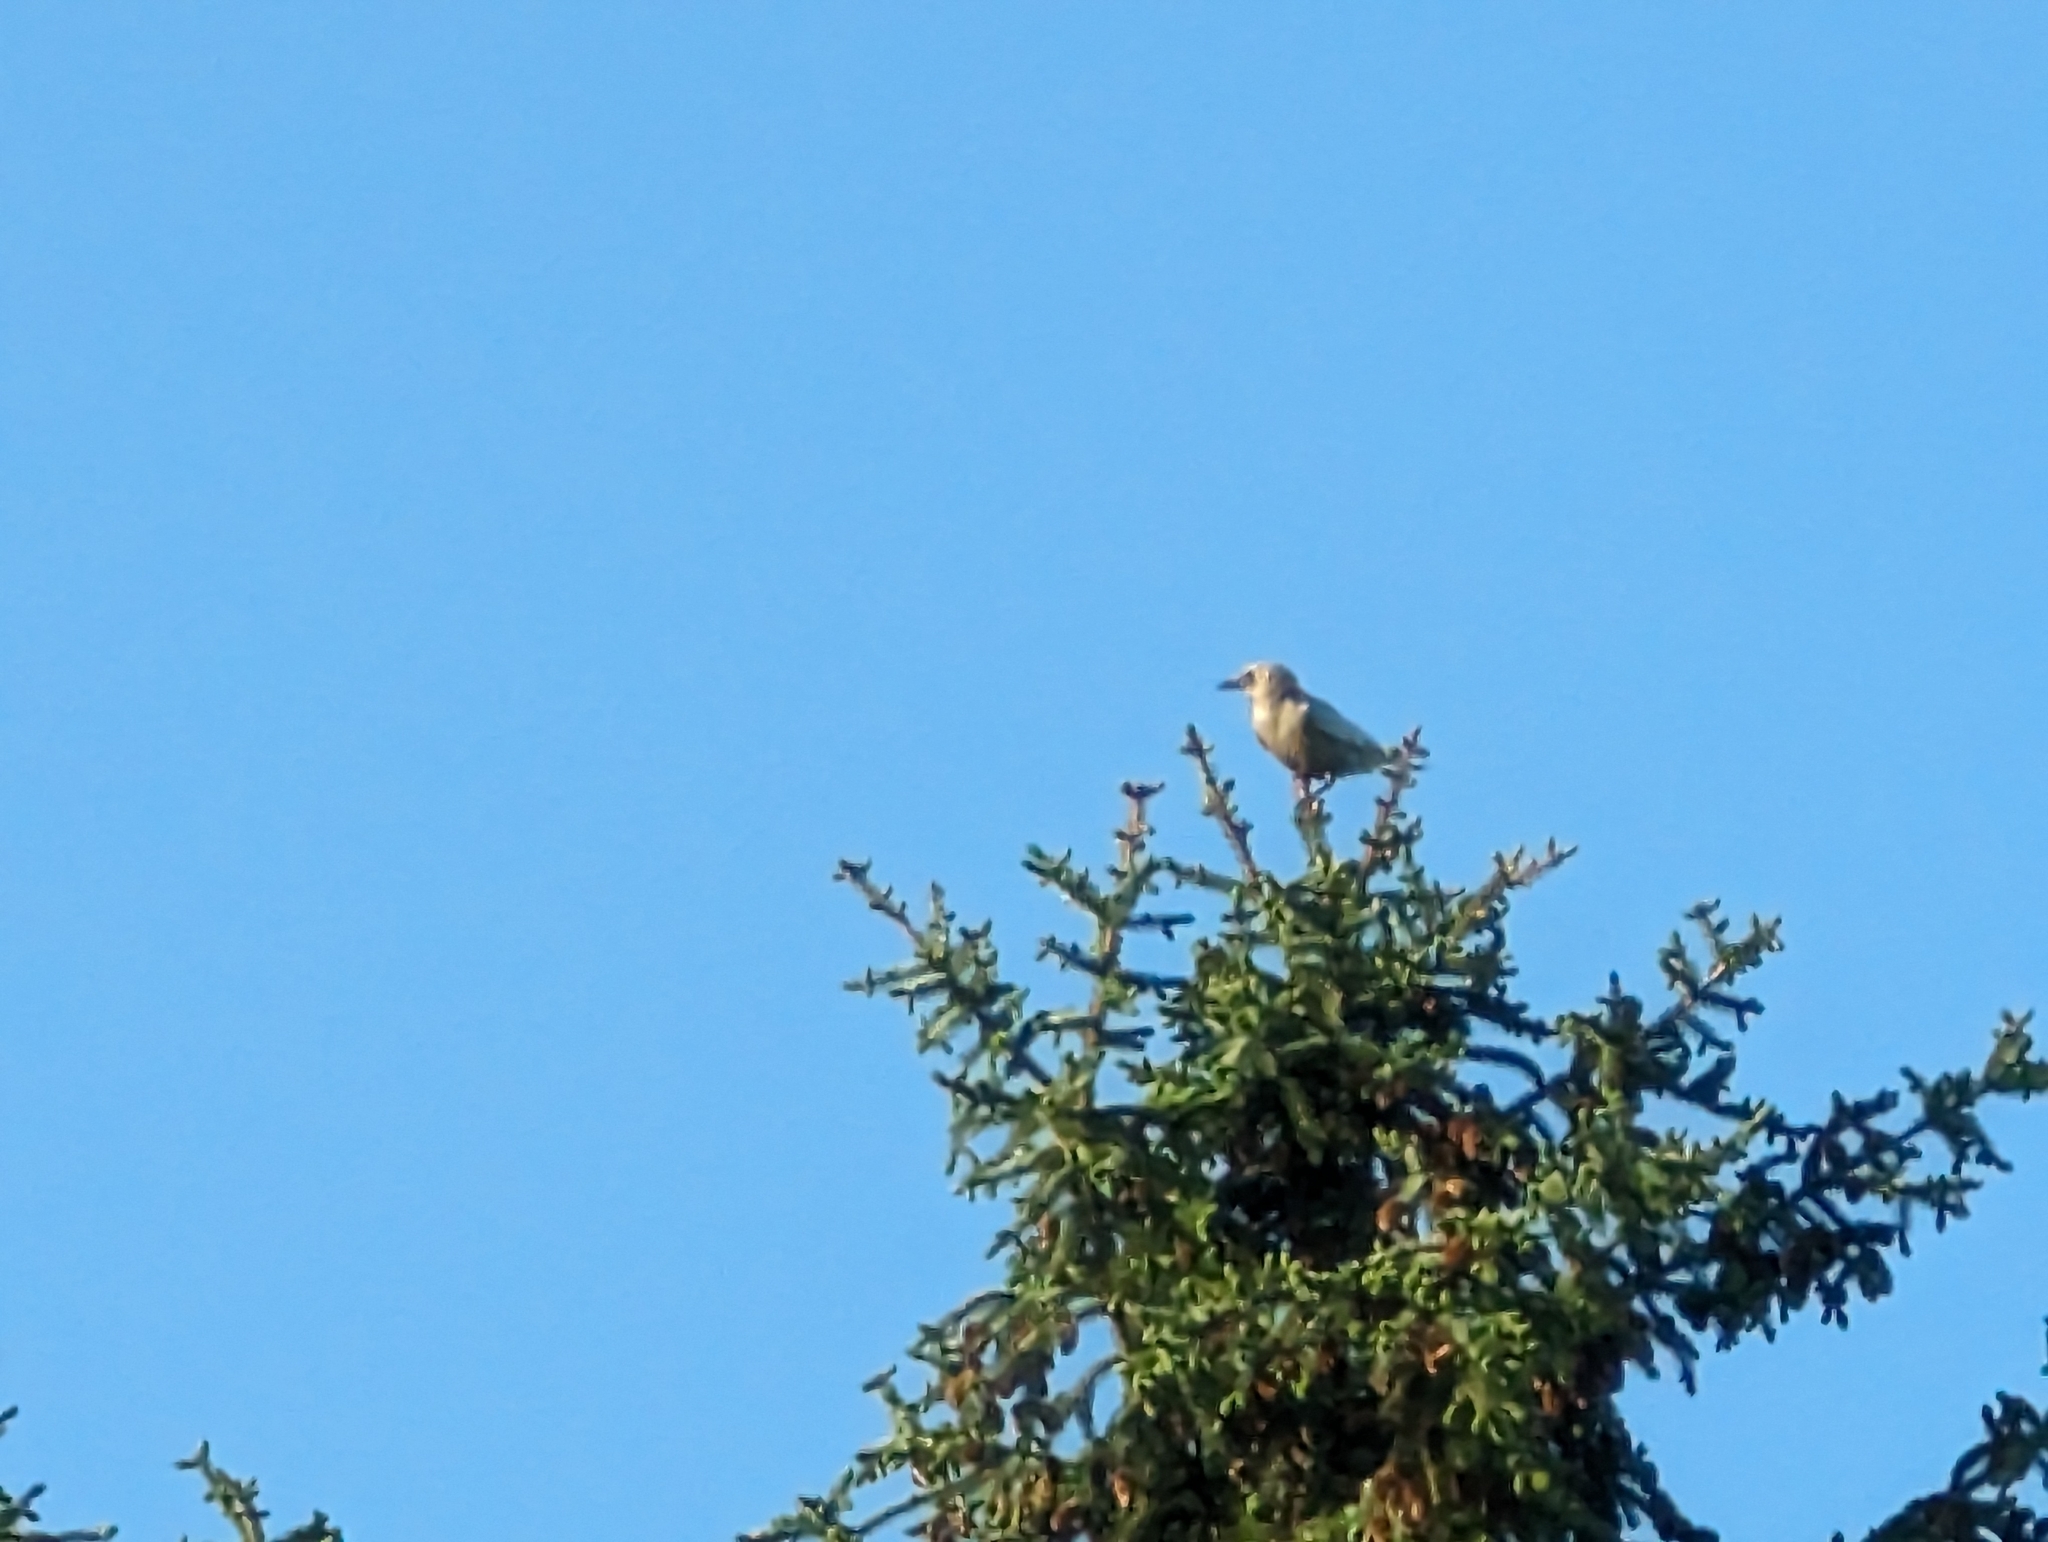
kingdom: Animalia
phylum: Chordata
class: Aves
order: Passeriformes
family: Corvidae
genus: Corvus
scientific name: Corvus brachyrhynchos
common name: American crow
